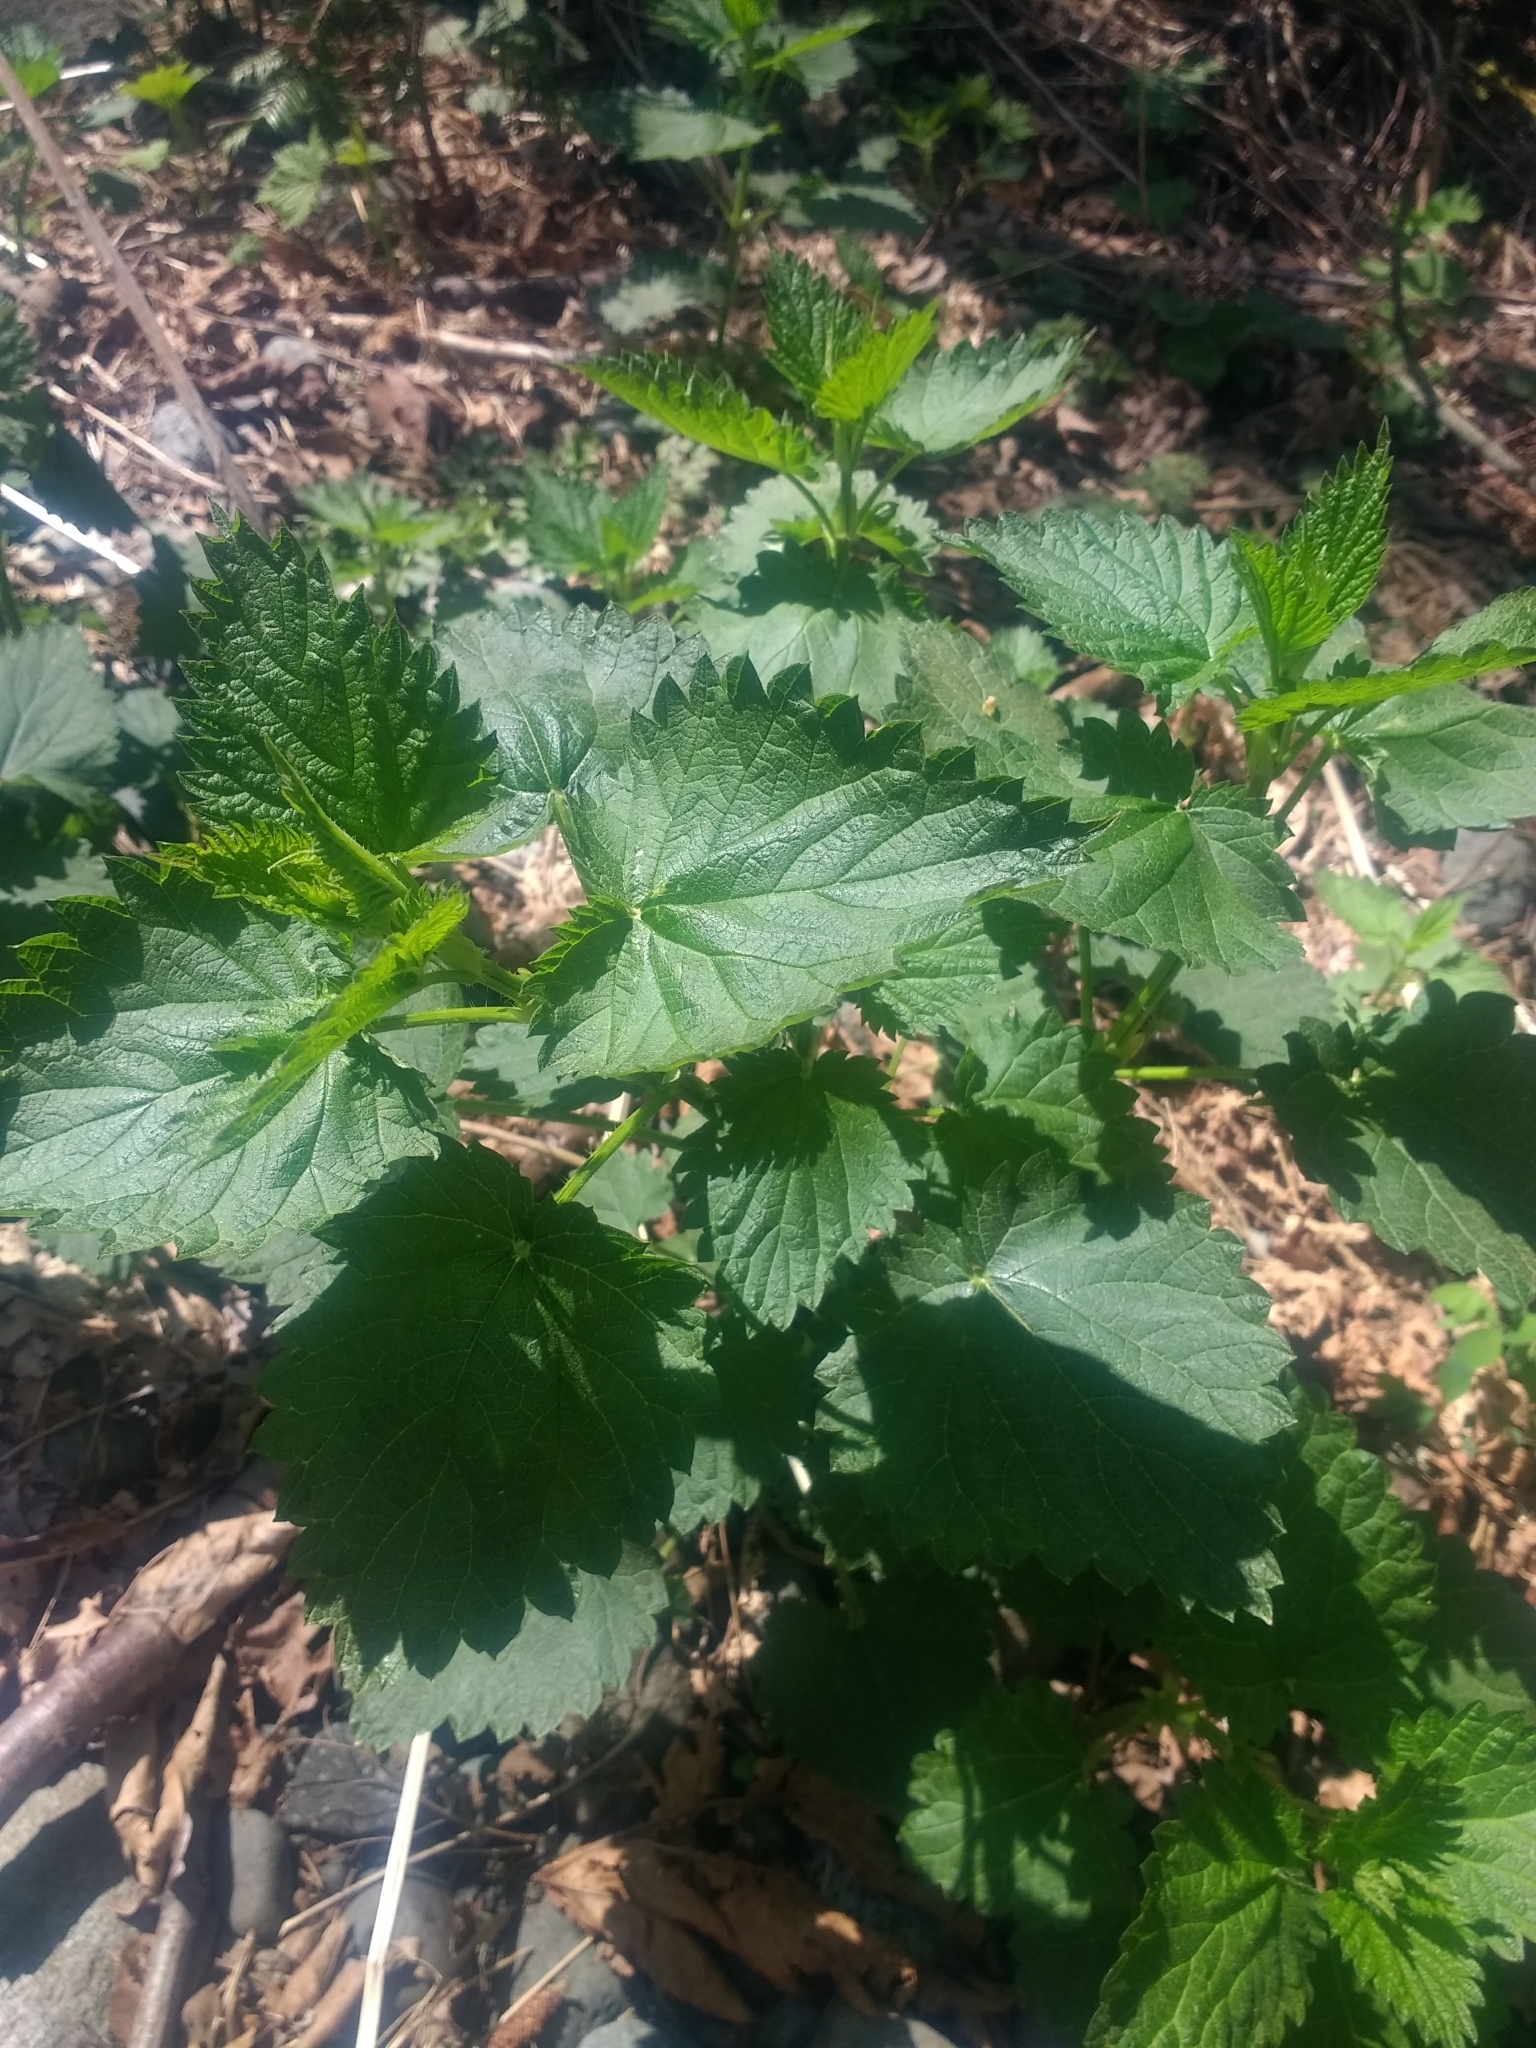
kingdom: Plantae
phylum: Tracheophyta
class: Magnoliopsida
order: Rosales
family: Urticaceae
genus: Urtica
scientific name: Urtica dioica
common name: Common nettle
